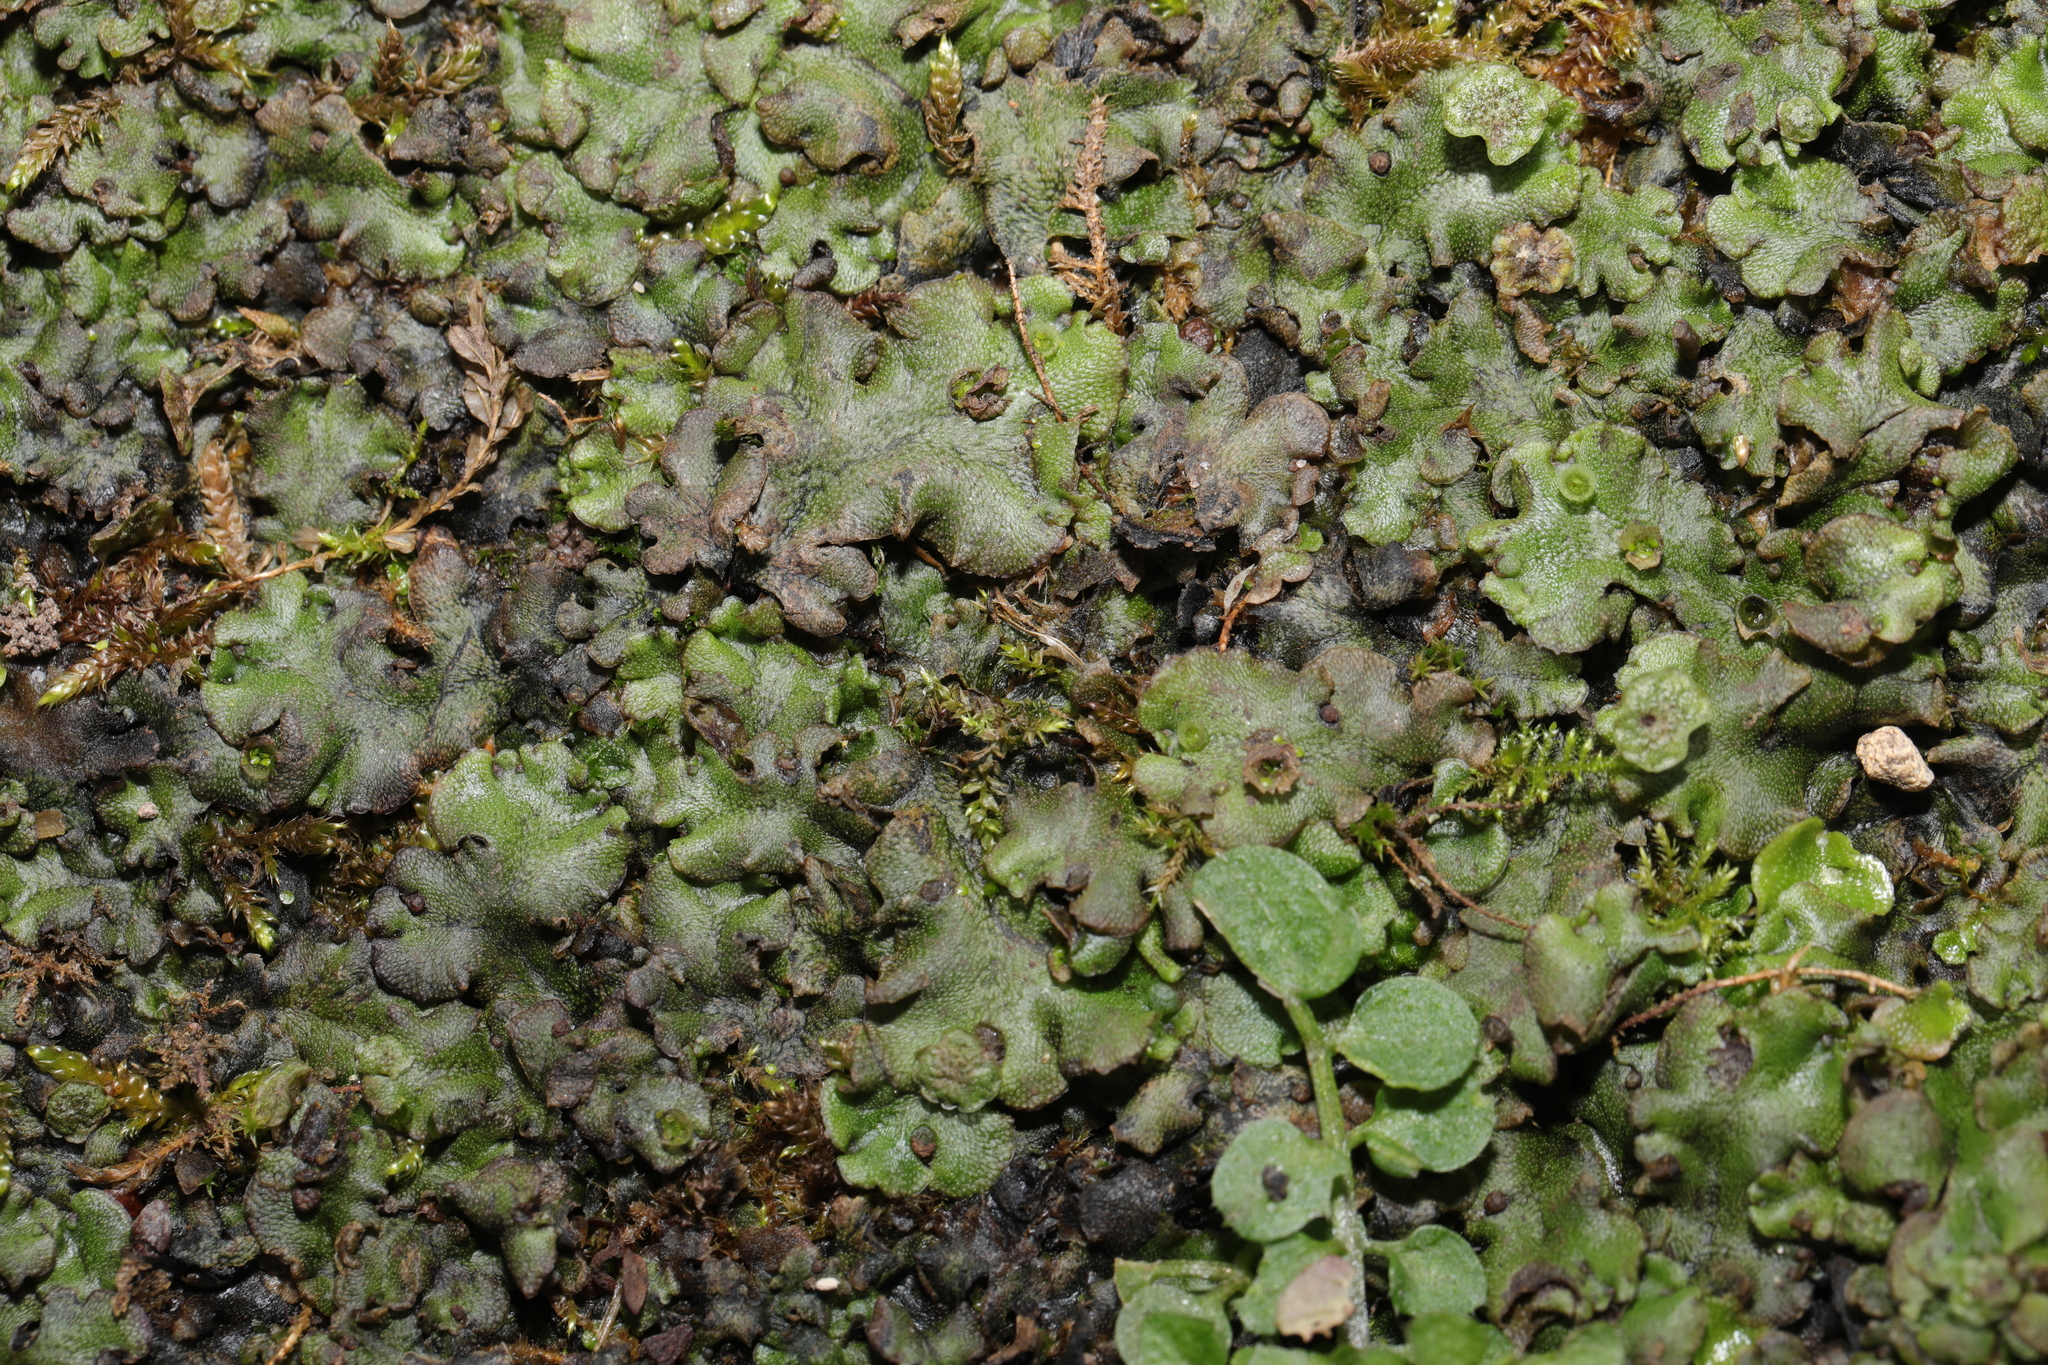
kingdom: Plantae
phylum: Marchantiophyta
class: Marchantiopsida
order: Marchantiales
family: Marchantiaceae
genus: Marchantia
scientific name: Marchantia polymorpha
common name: Common liverwort
